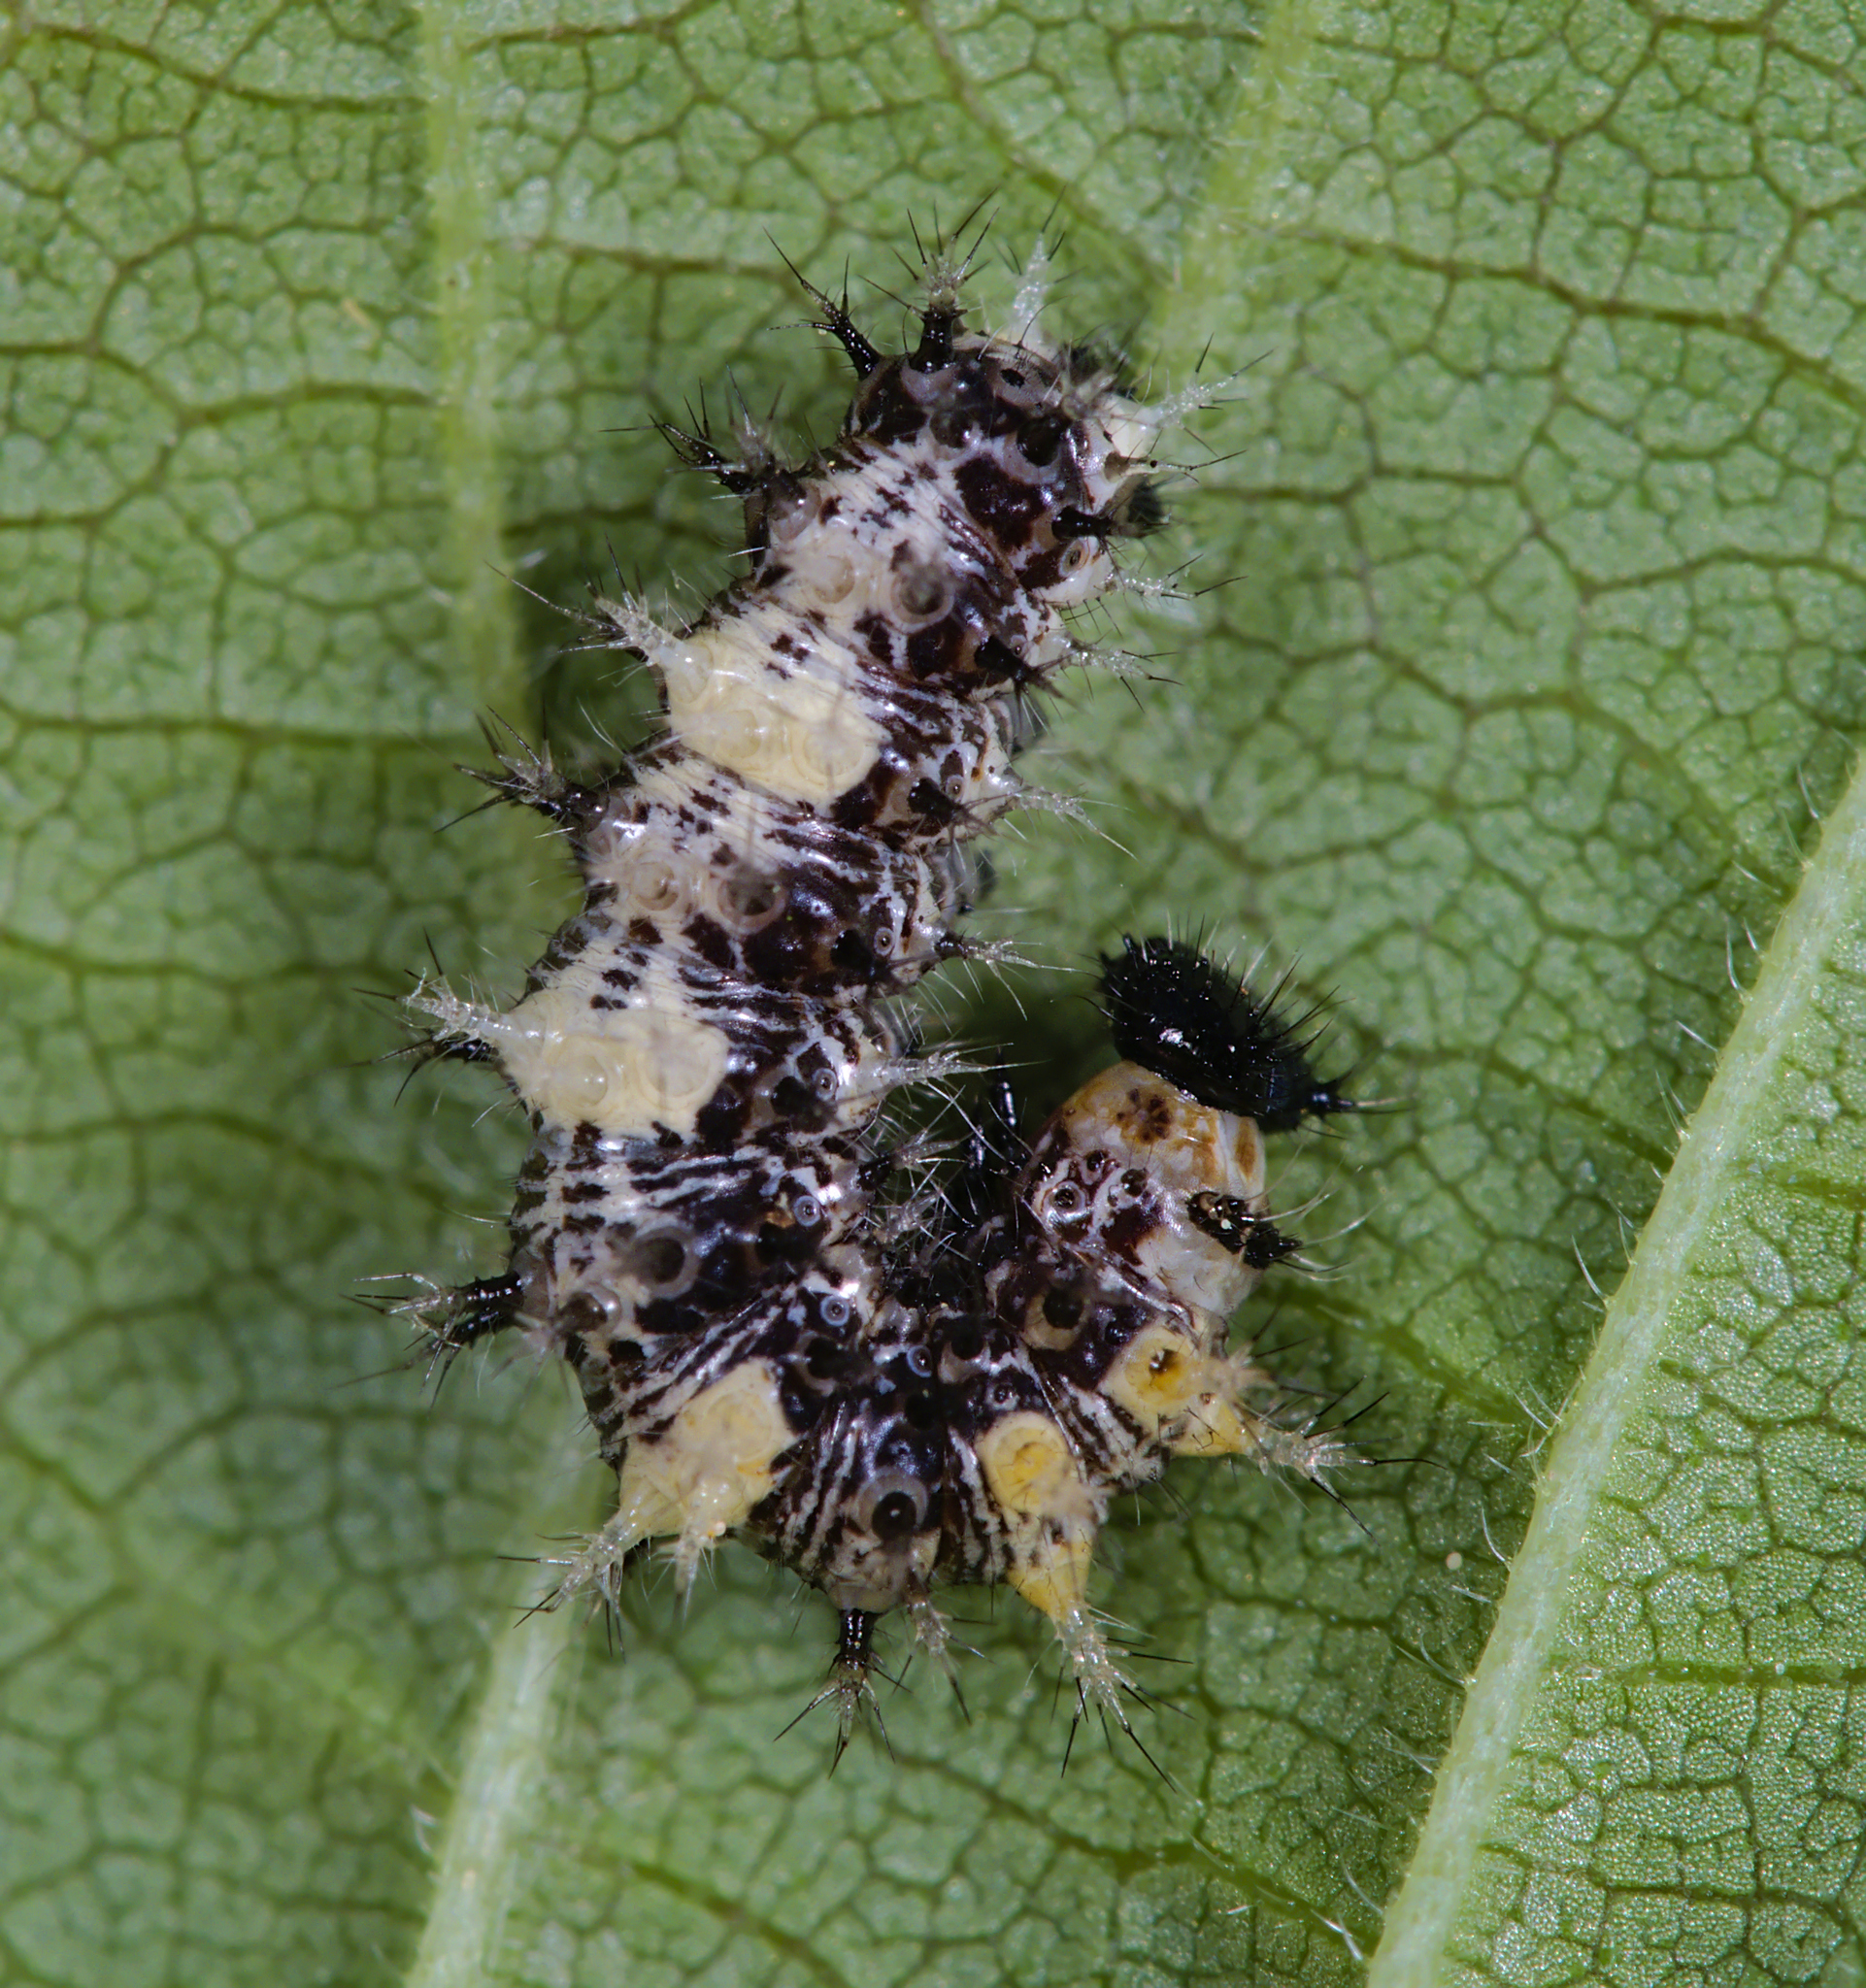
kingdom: Animalia
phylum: Arthropoda
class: Insecta
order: Lepidoptera
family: Nymphalidae
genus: Polygonia
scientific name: Polygonia c-album
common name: Comma
